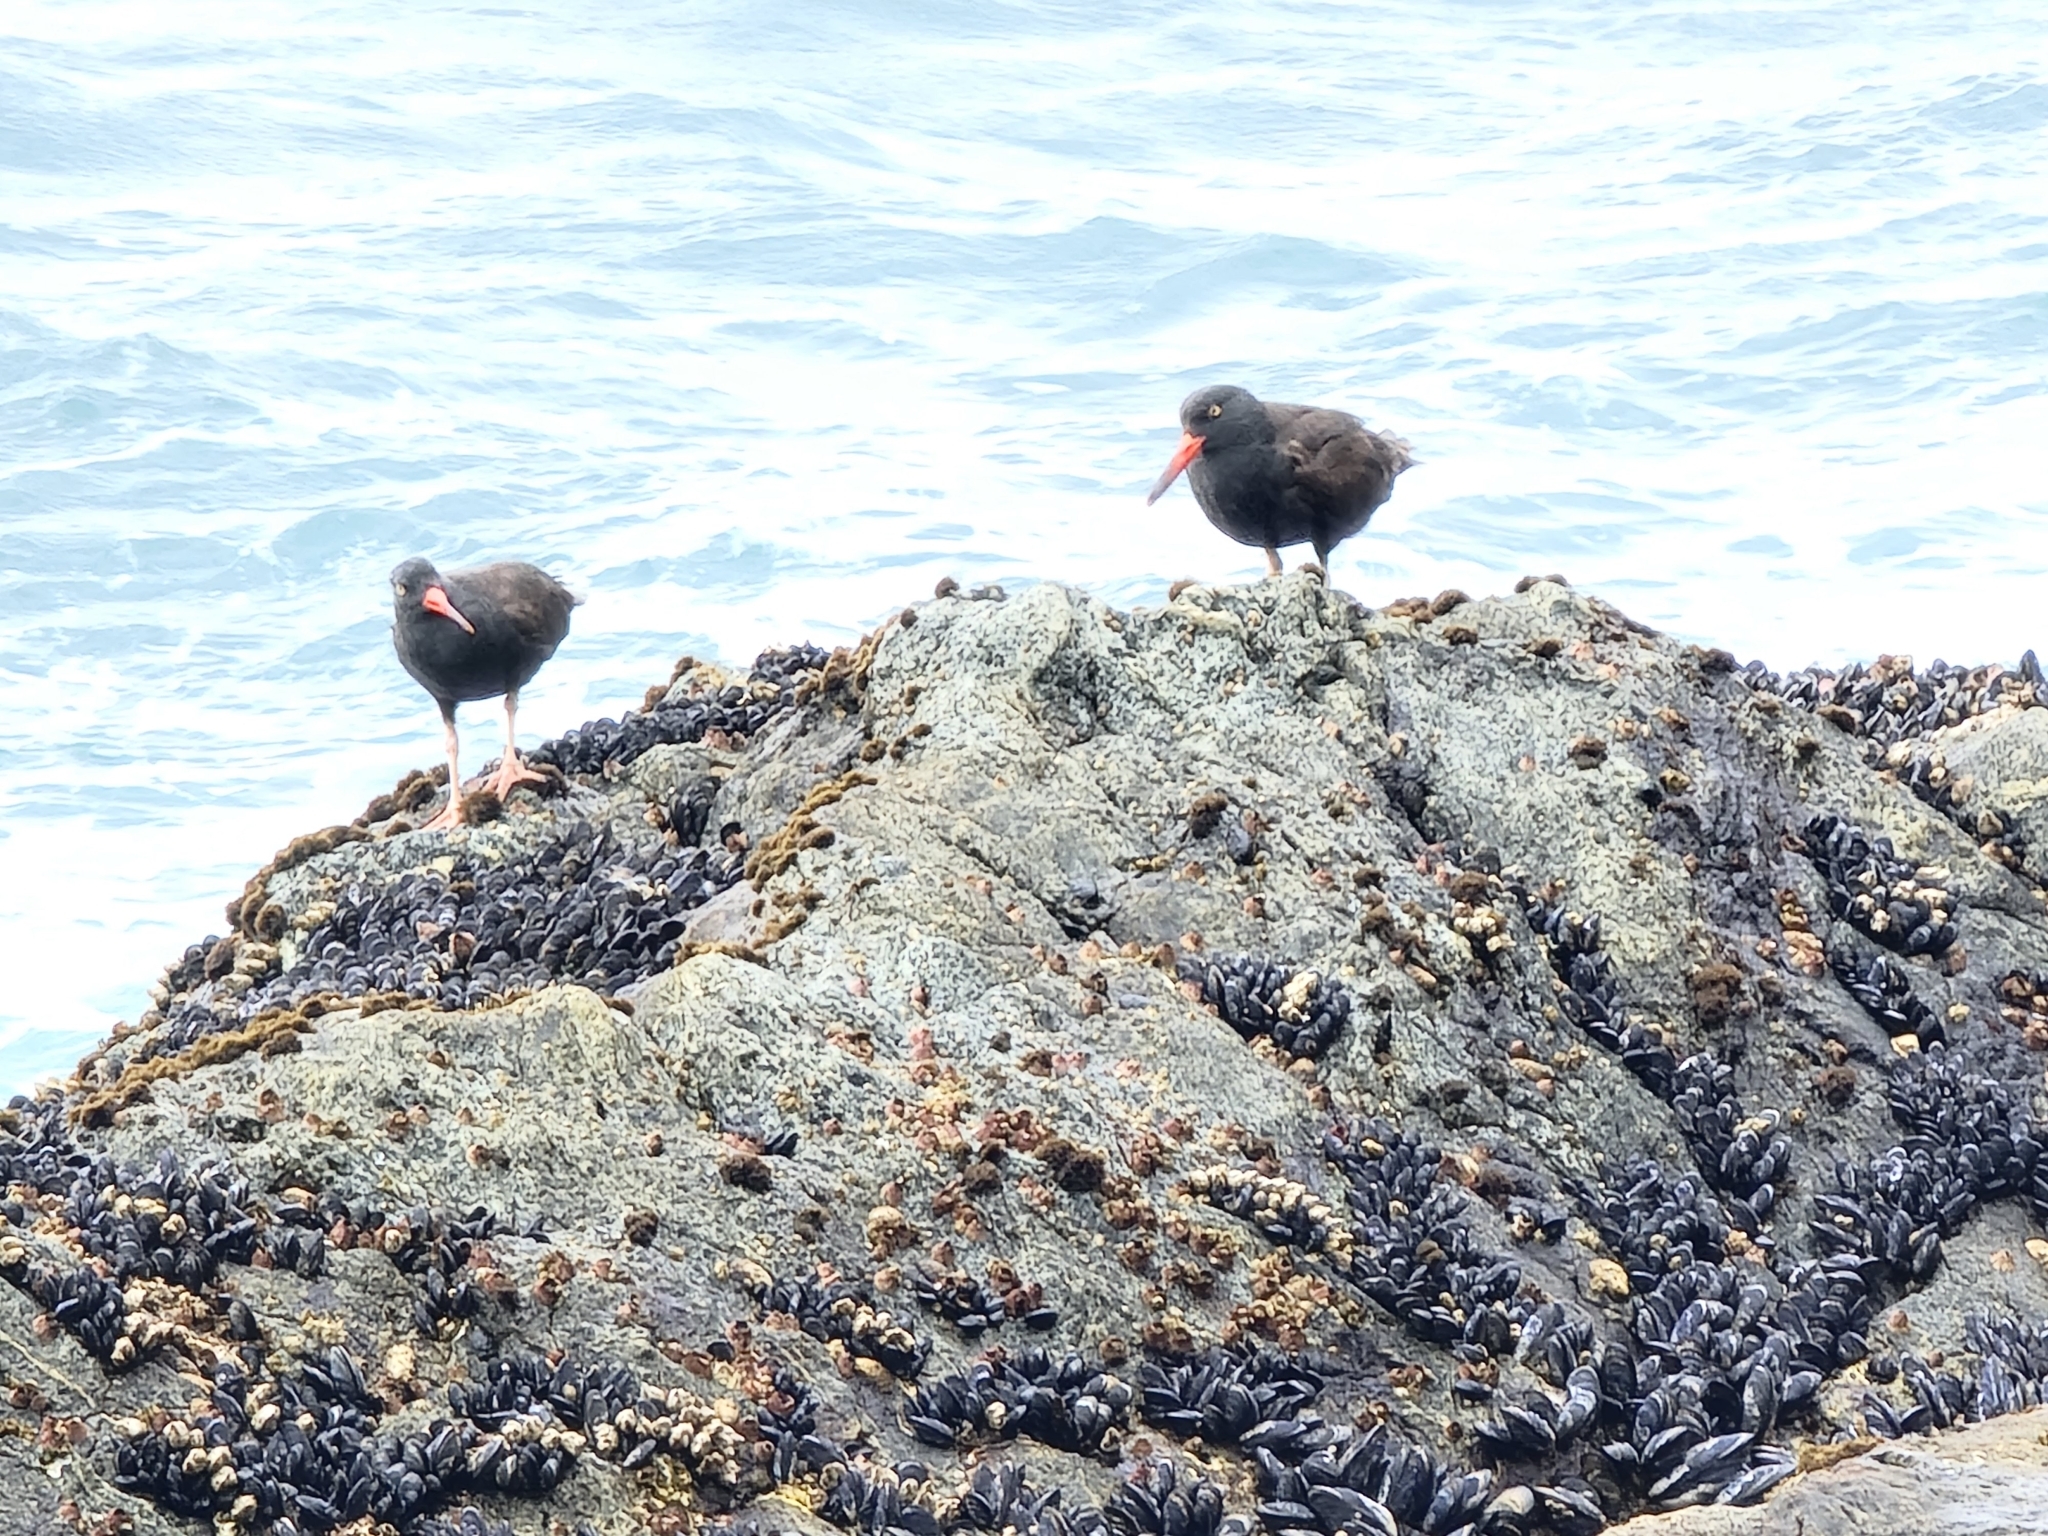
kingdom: Animalia
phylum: Chordata
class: Aves
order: Charadriiformes
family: Haematopodidae
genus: Haematopus
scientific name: Haematopus bachmani
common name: Black oystercatcher
